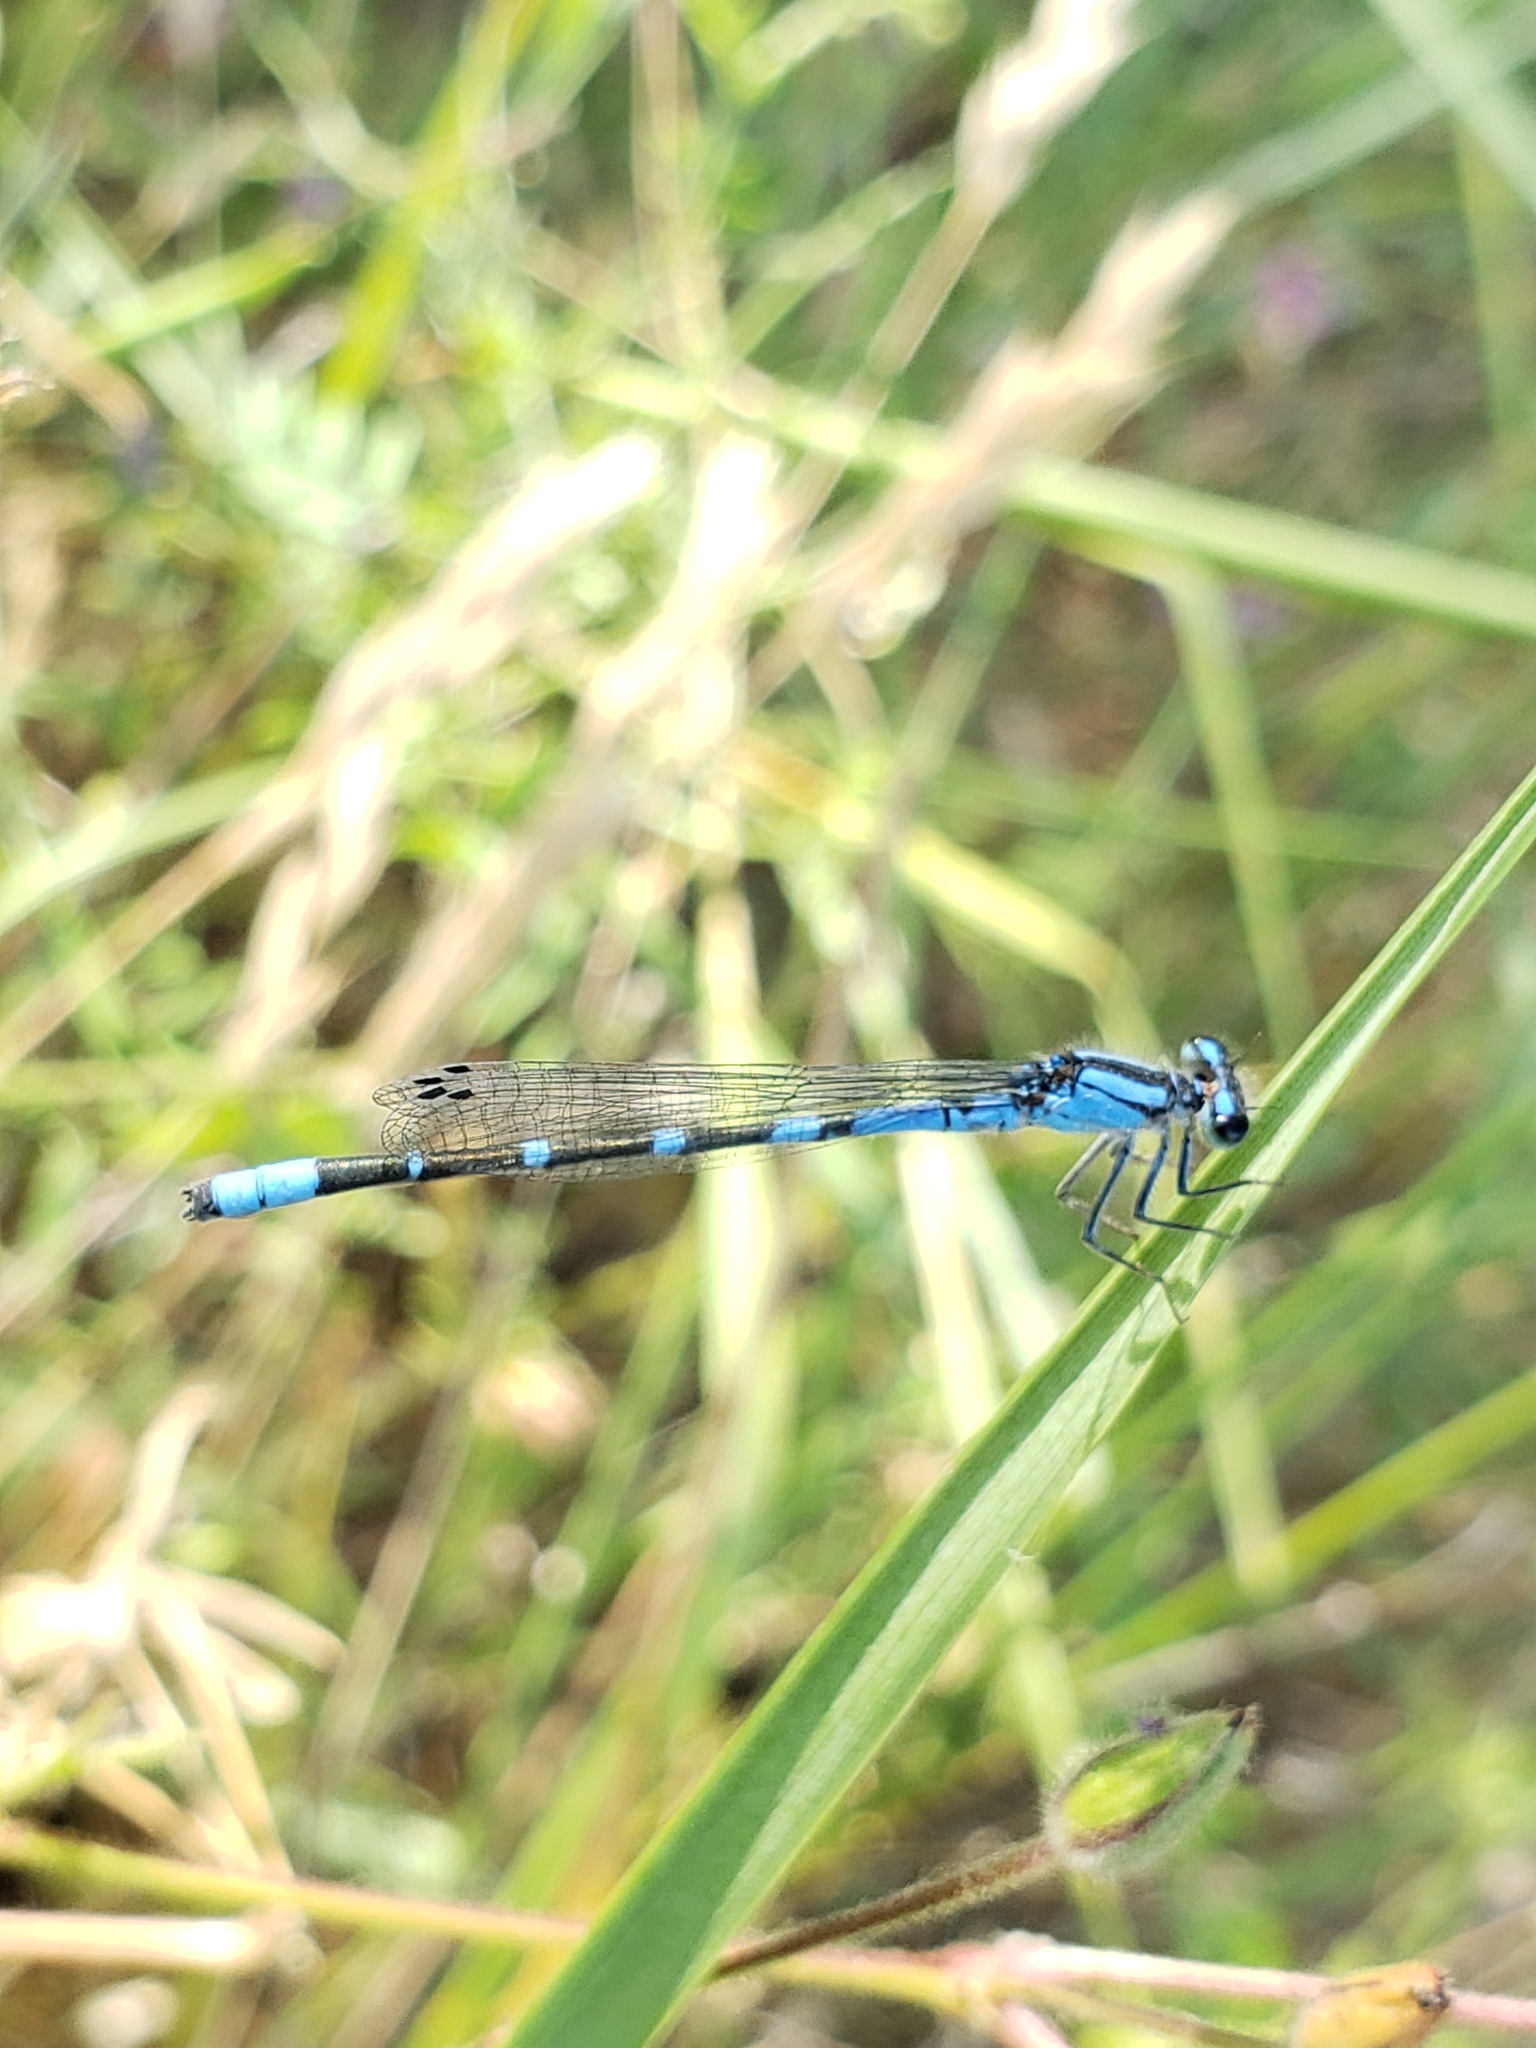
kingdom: Animalia
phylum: Arthropoda
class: Insecta
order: Odonata
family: Coenagrionidae
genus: Enallagma
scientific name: Enallagma praevarum
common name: Arroyo bluet
